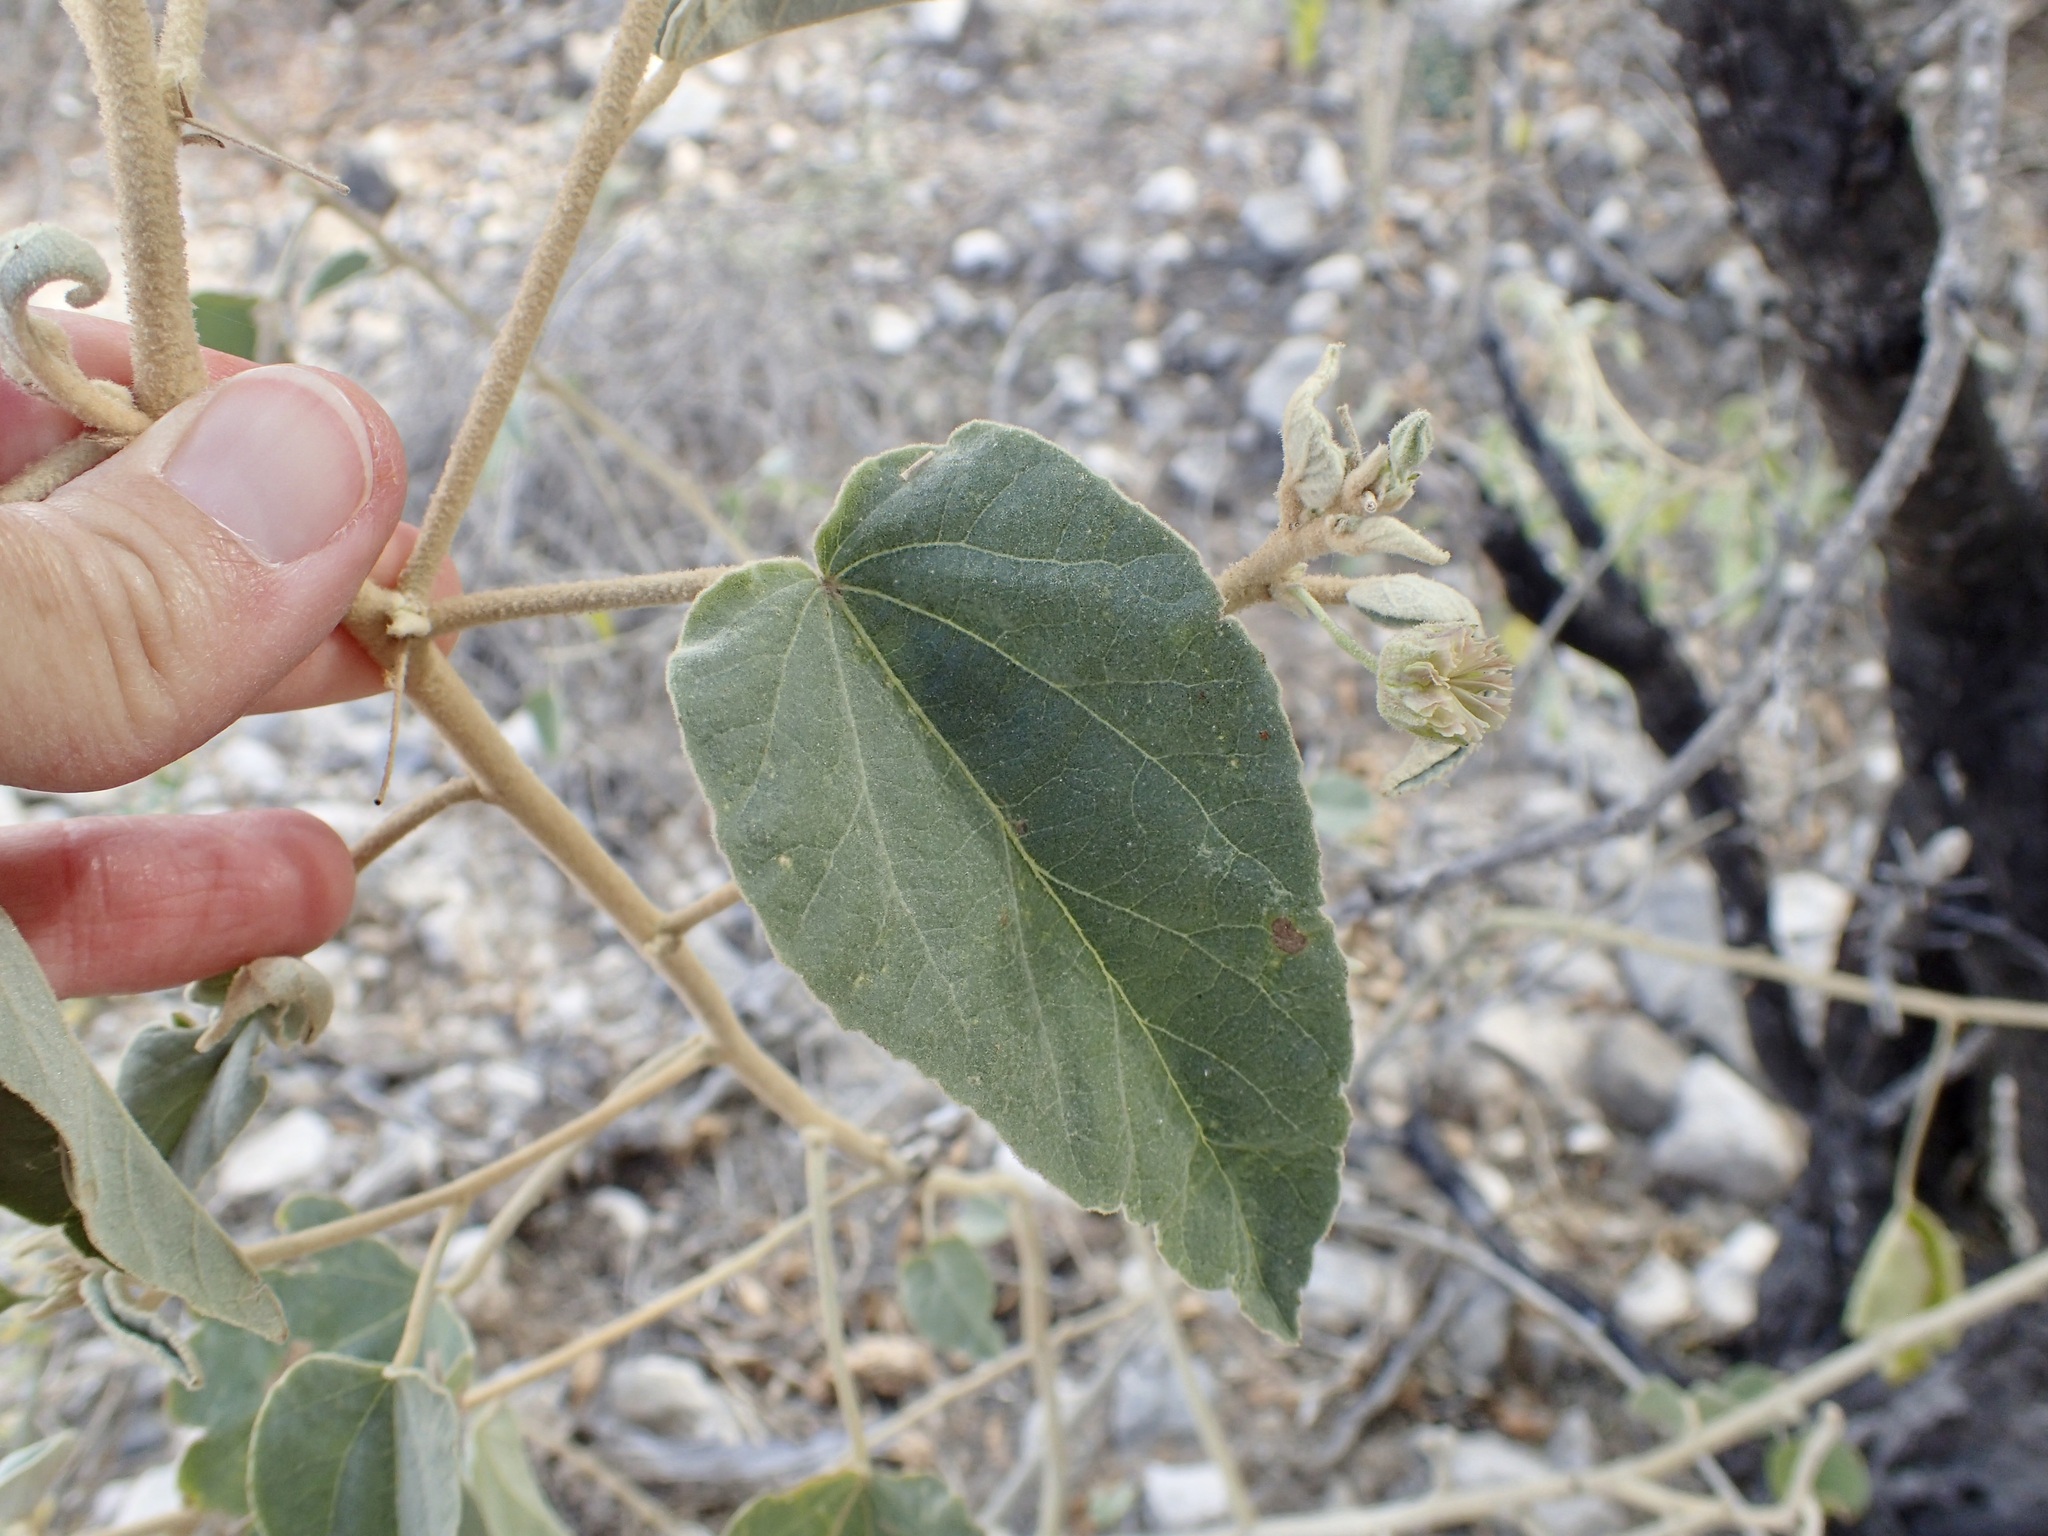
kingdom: Plantae
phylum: Tracheophyta
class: Magnoliopsida
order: Malvales
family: Malvaceae
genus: Horsfordia
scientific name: Horsfordia alata
